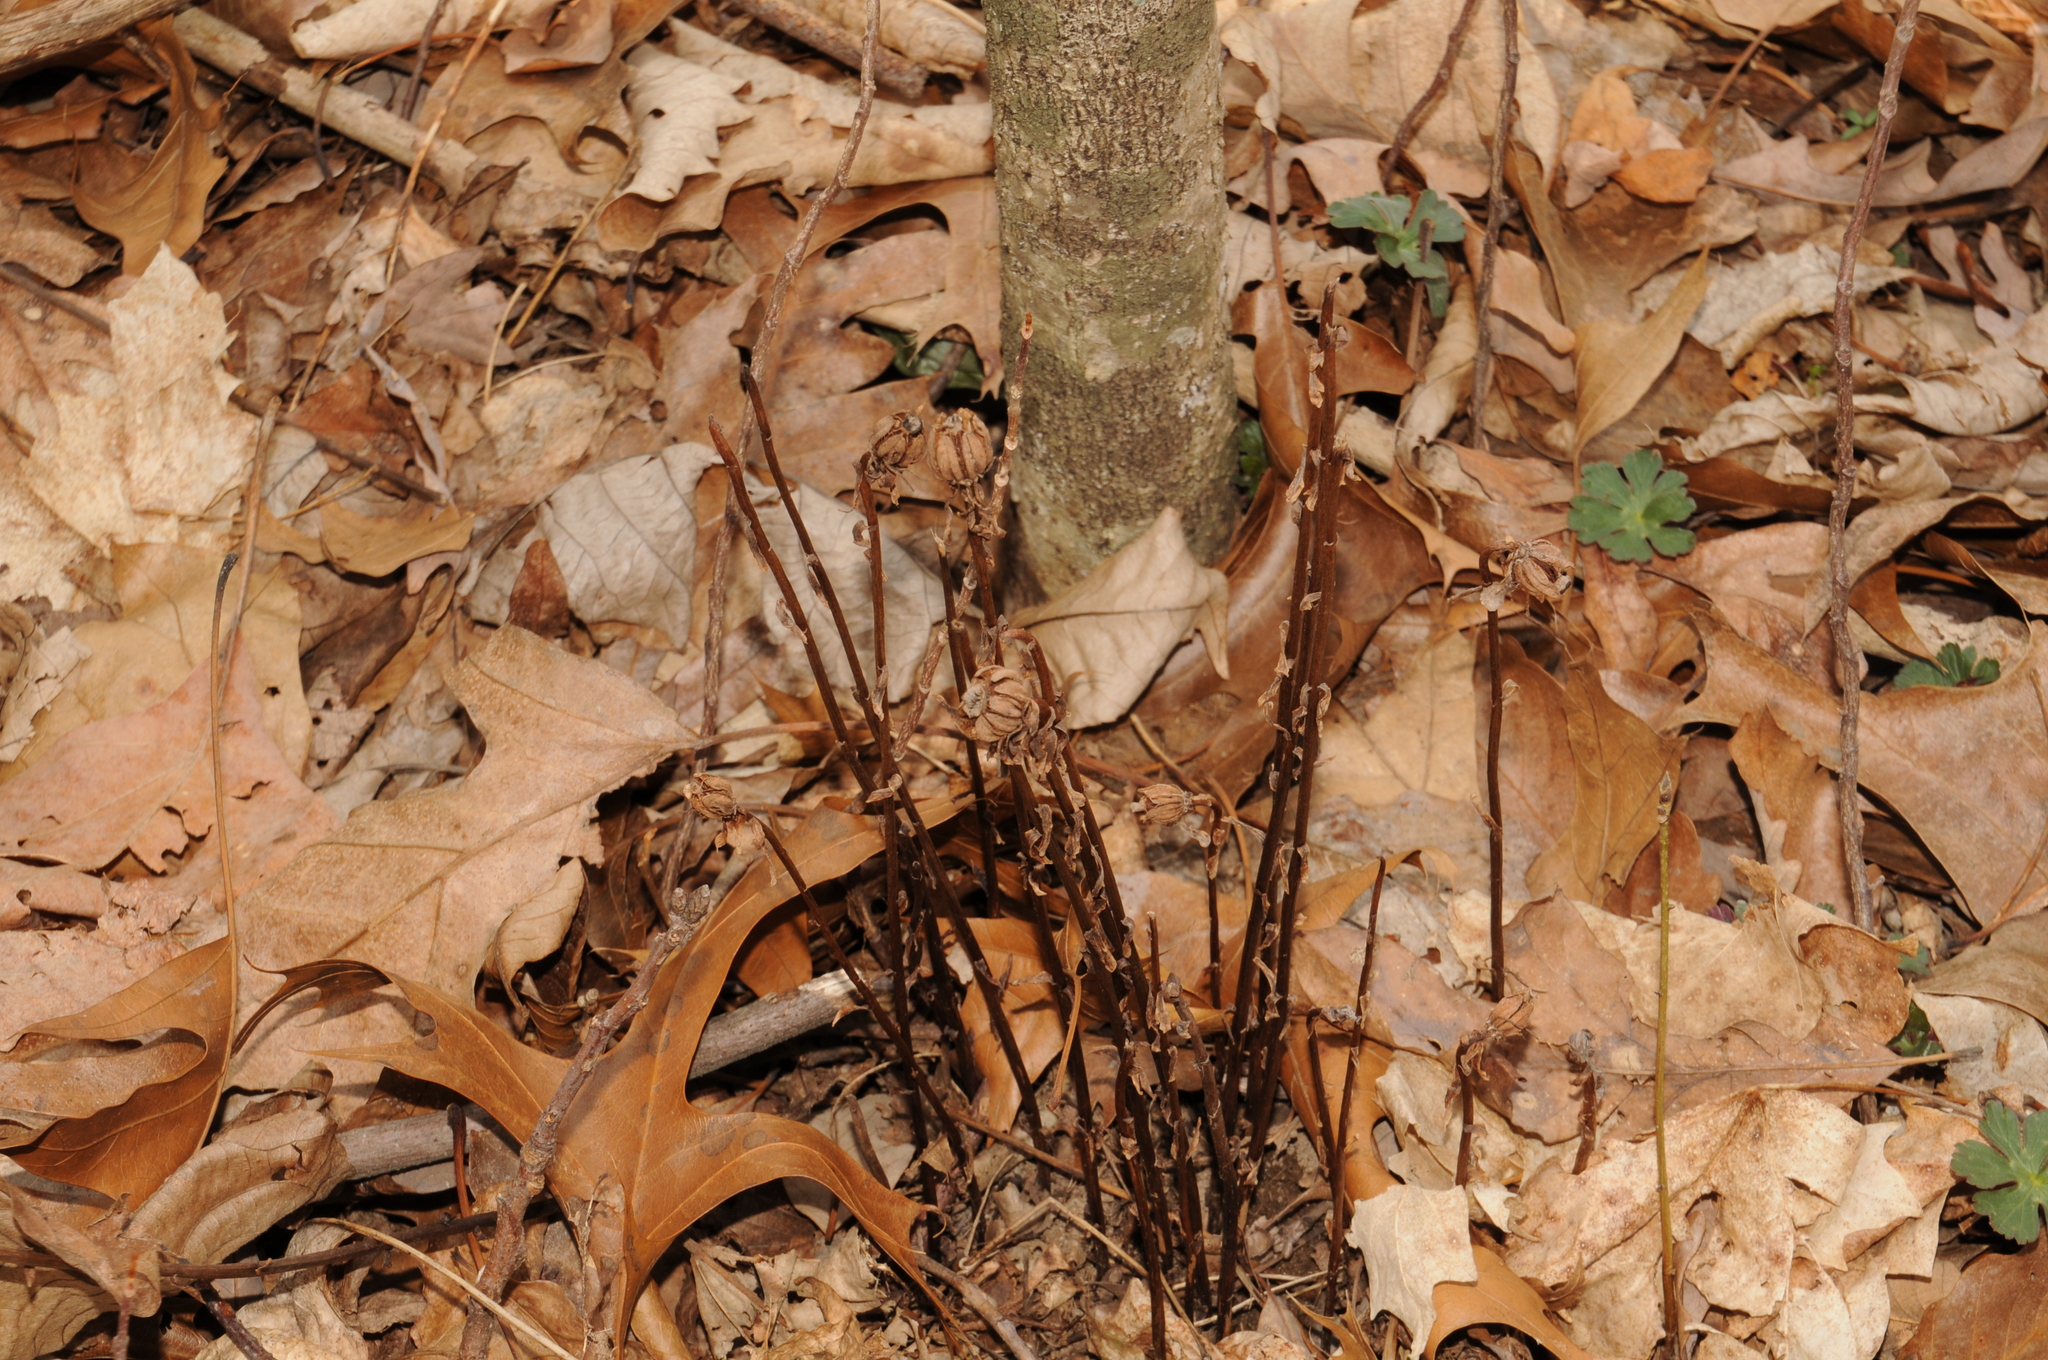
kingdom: Plantae
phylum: Tracheophyta
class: Magnoliopsida
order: Ericales
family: Ericaceae
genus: Monotropa
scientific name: Monotropa uniflora
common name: Convulsion root
